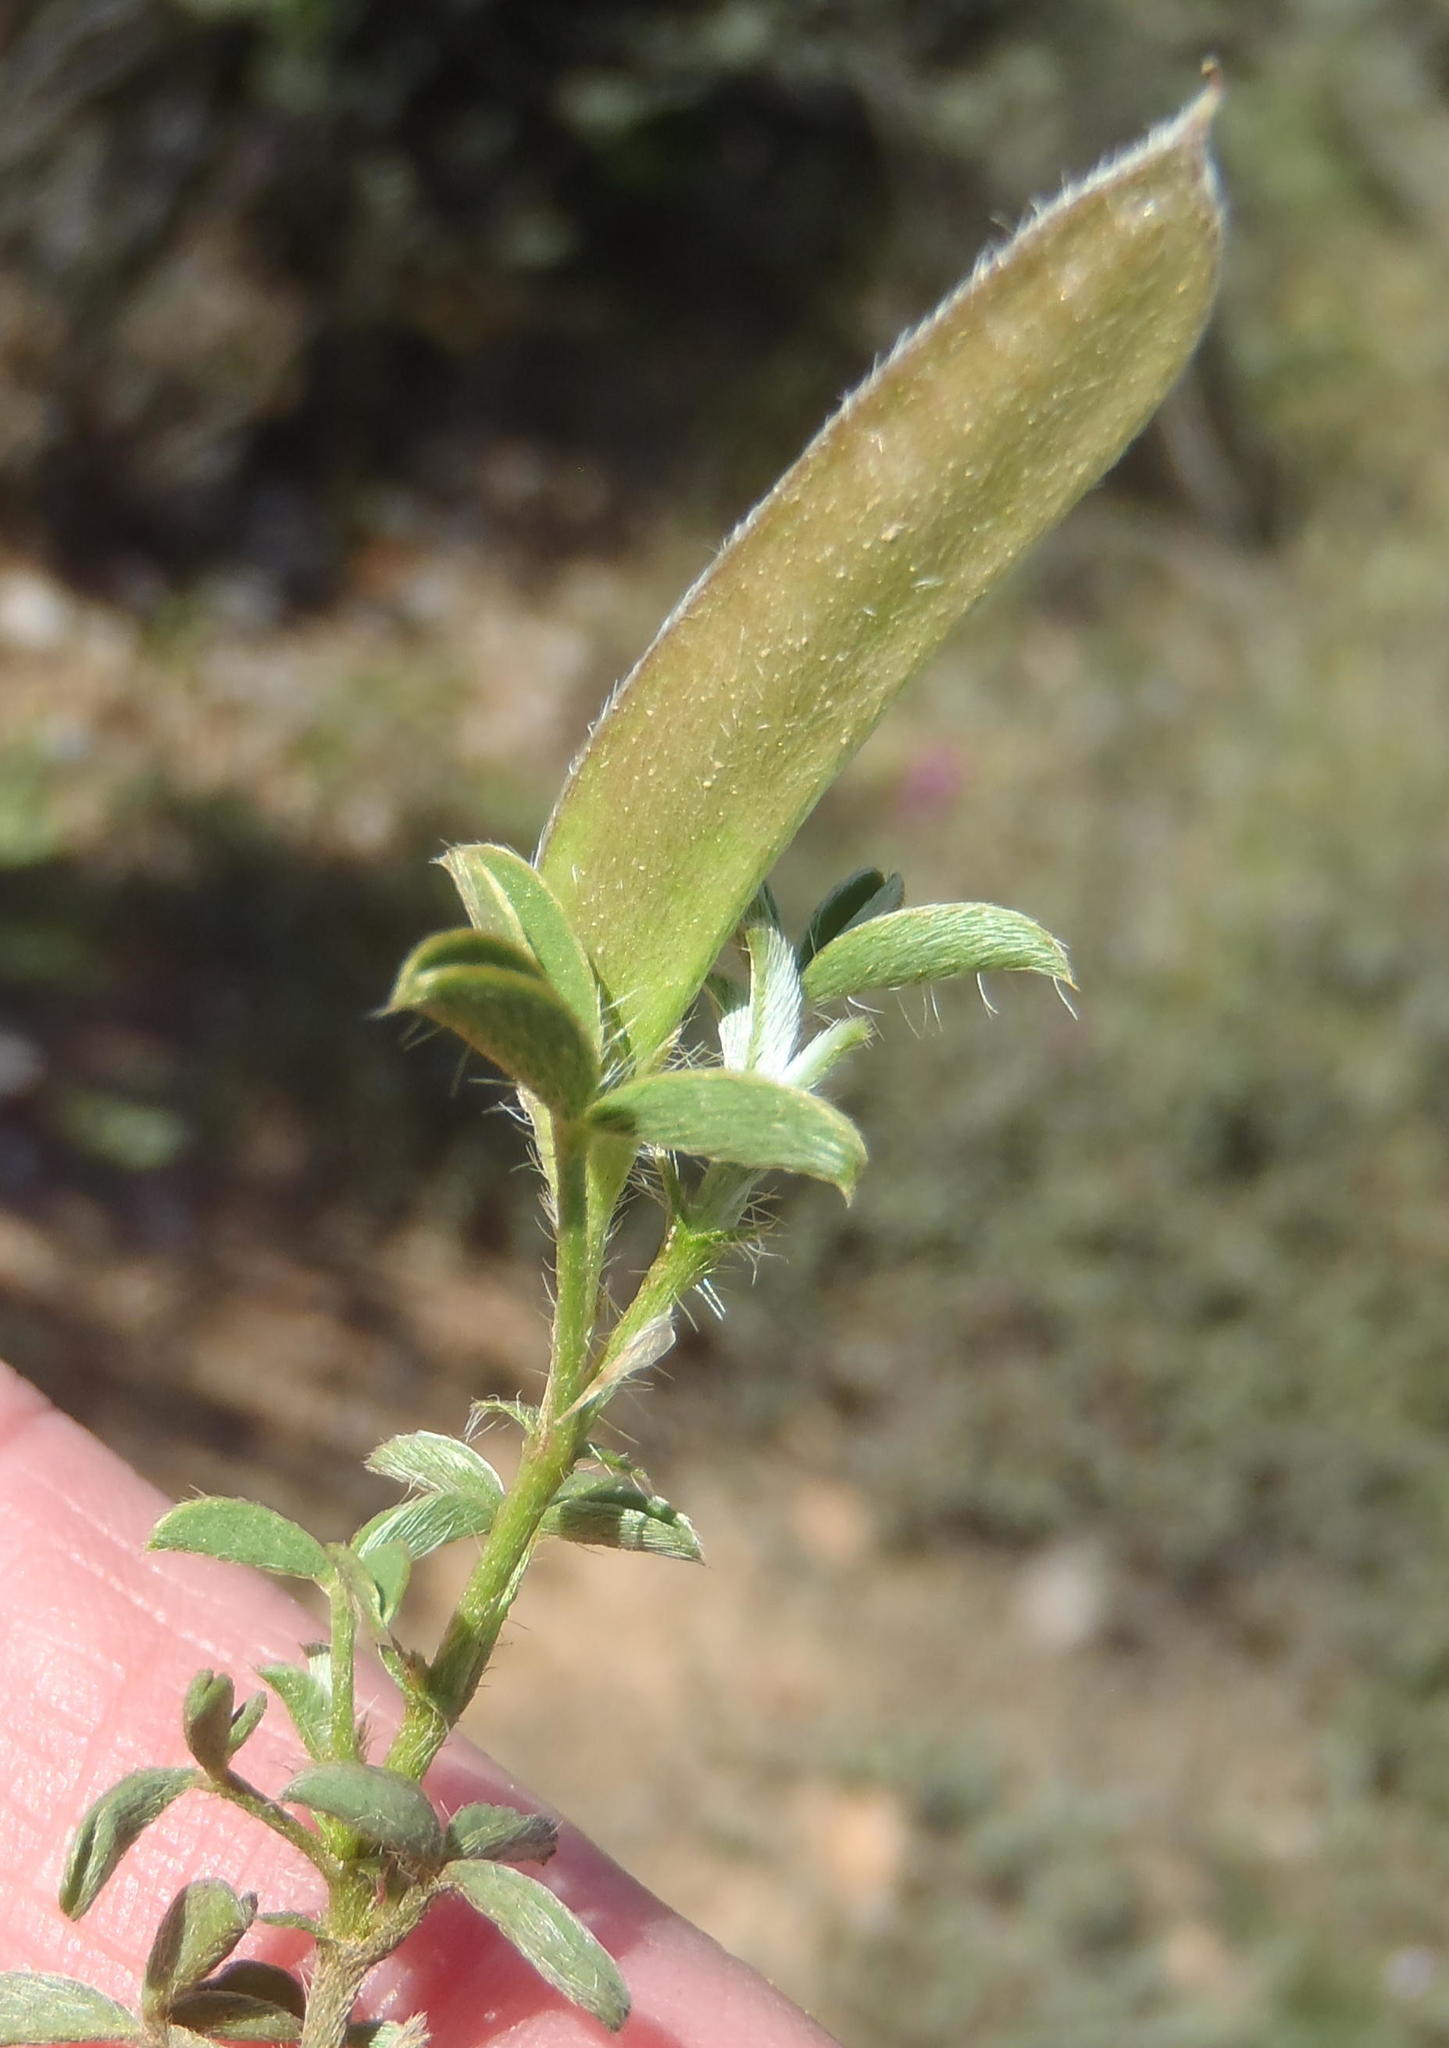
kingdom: Plantae
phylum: Tracheophyta
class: Magnoliopsida
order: Fabales
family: Fabaceae
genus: Argyrolobium
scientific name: Argyrolobium molle
